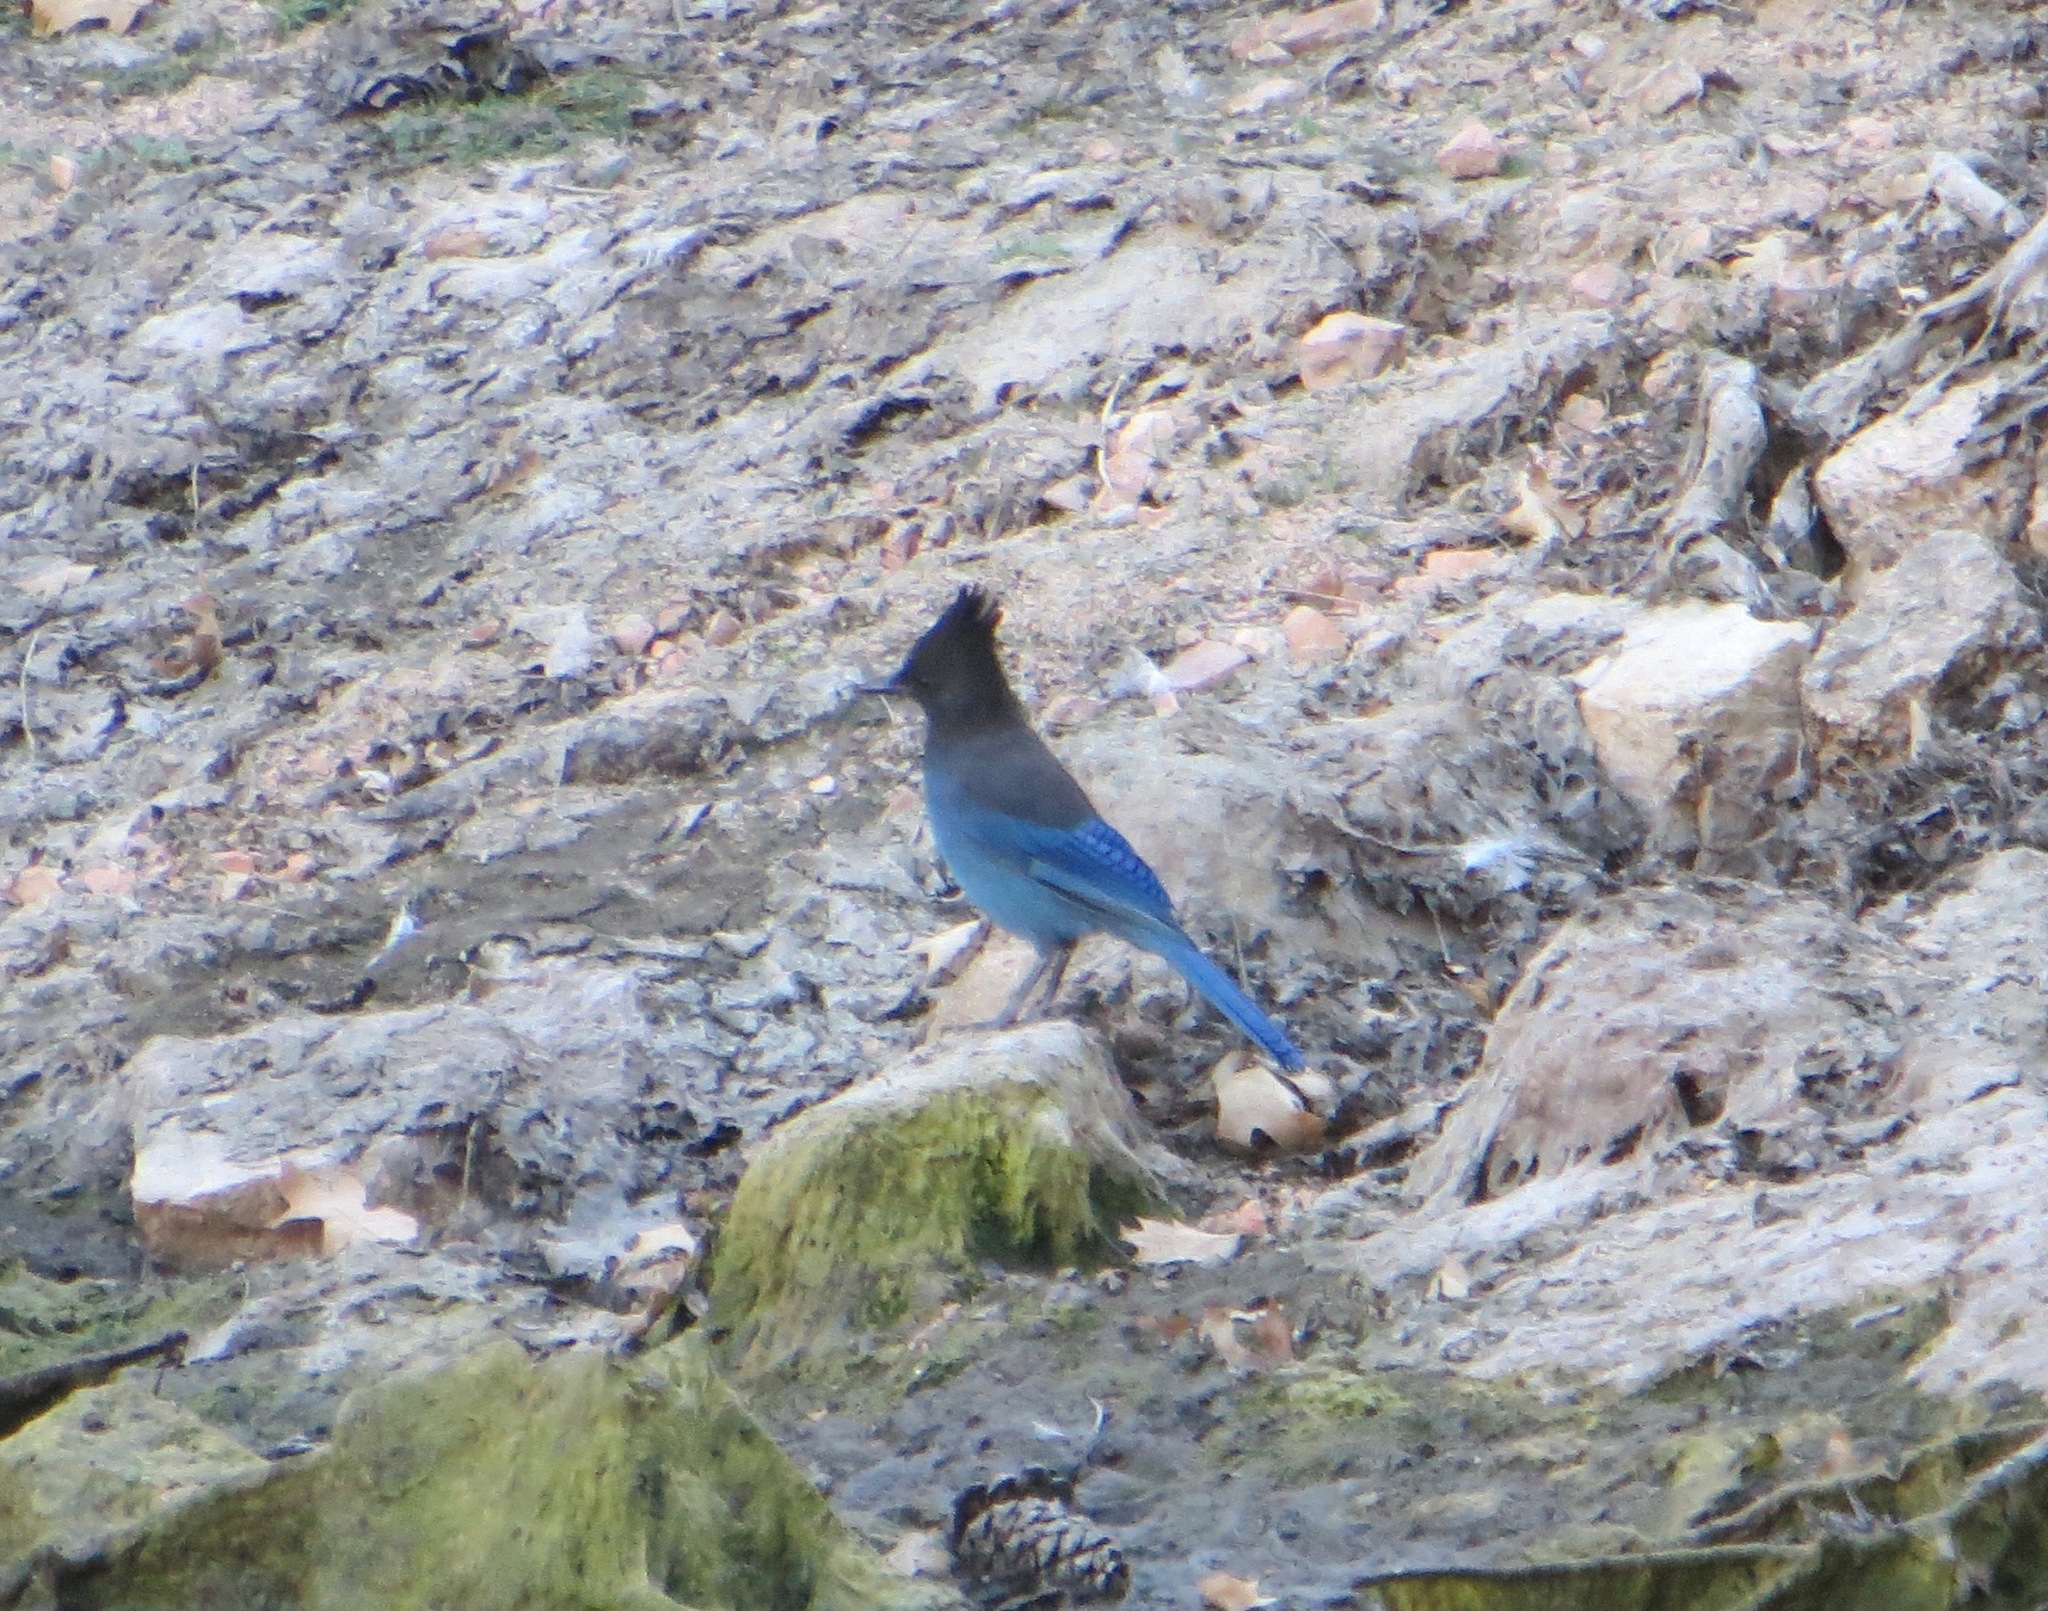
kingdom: Animalia
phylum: Chordata
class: Aves
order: Passeriformes
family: Corvidae
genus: Cyanocitta
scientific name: Cyanocitta stelleri
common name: Steller's jay
